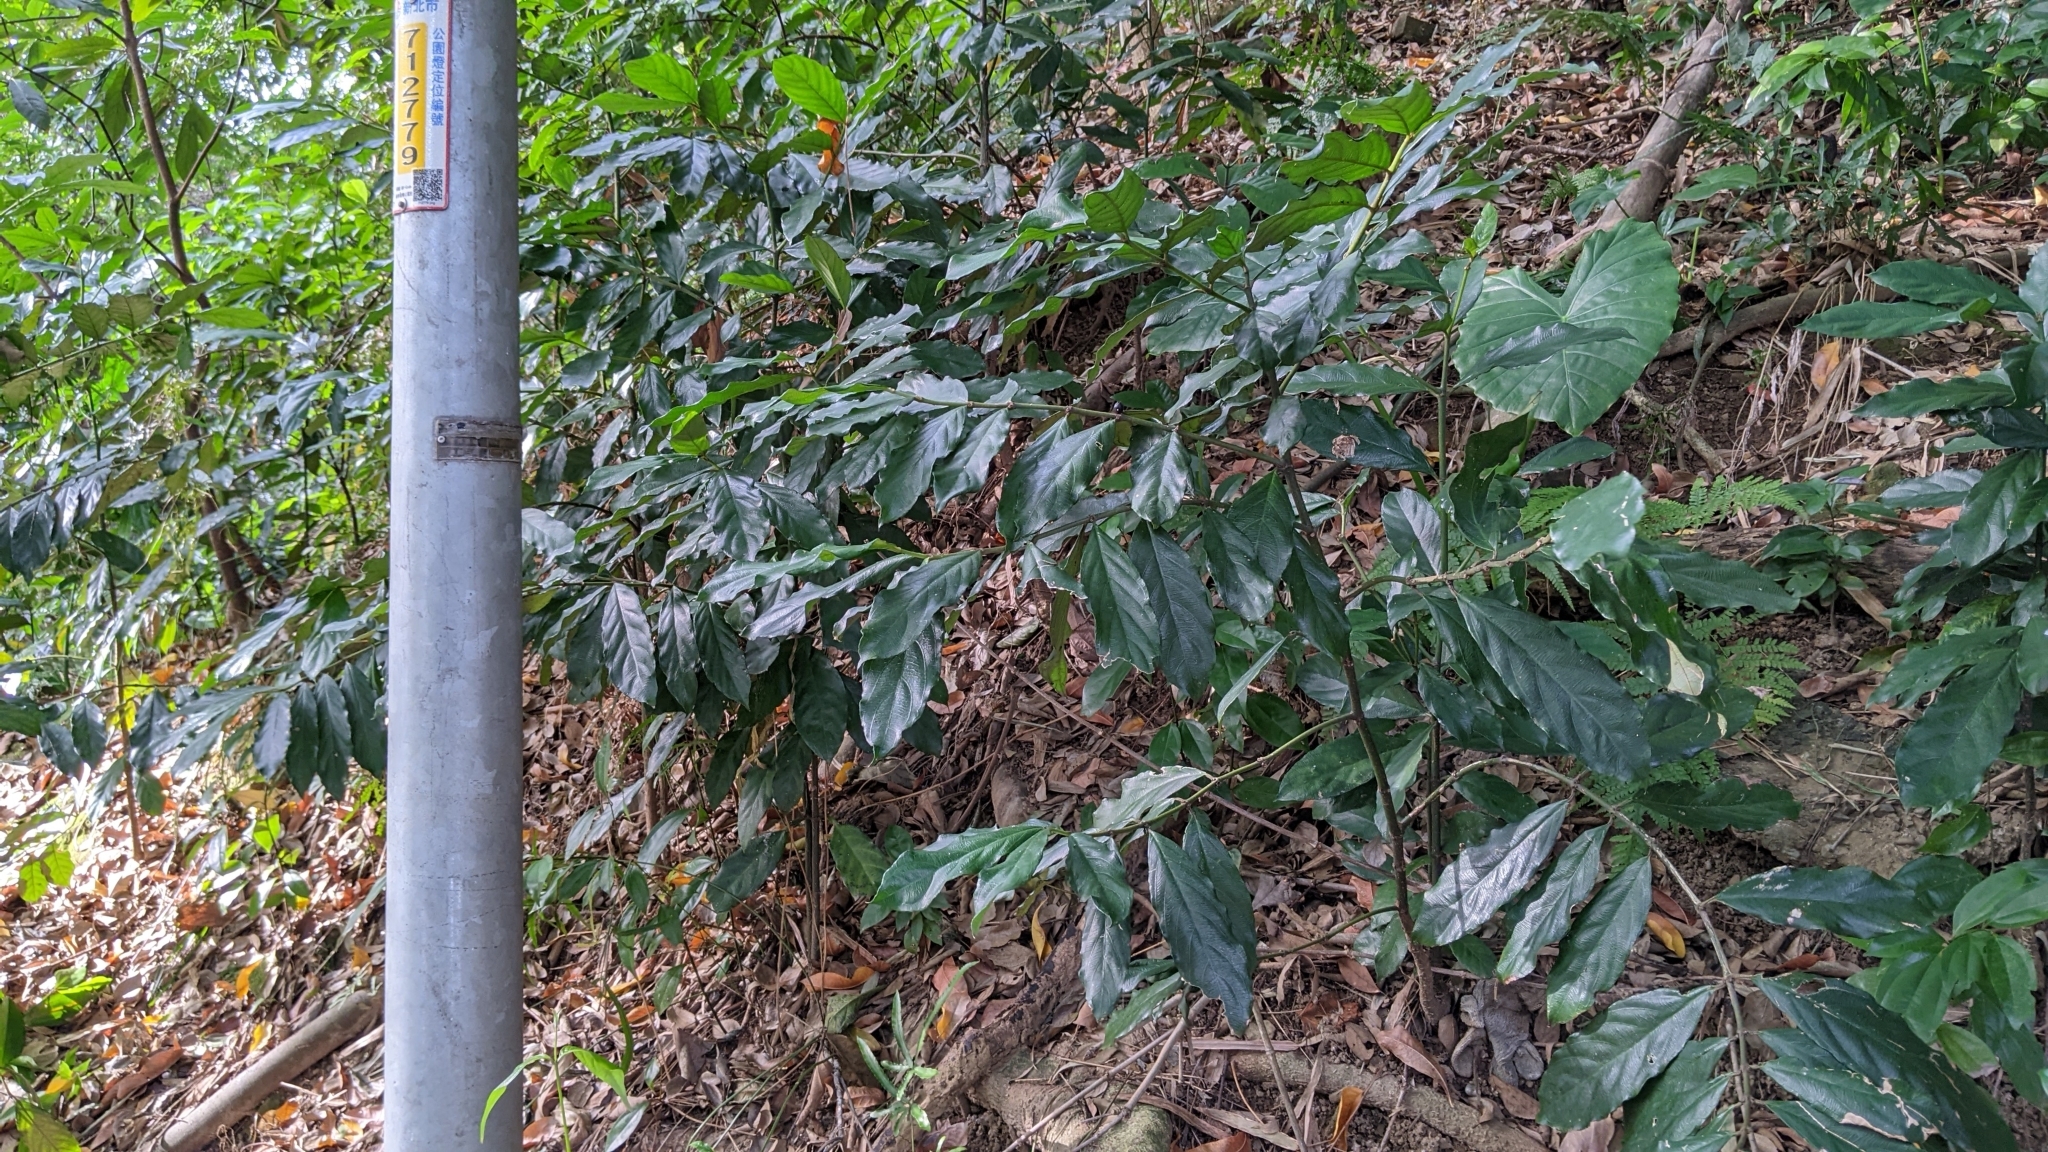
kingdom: Plantae
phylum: Tracheophyta
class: Magnoliopsida
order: Gentianales
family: Rubiaceae
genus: Lasianthus
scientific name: Lasianthus verticillatus
